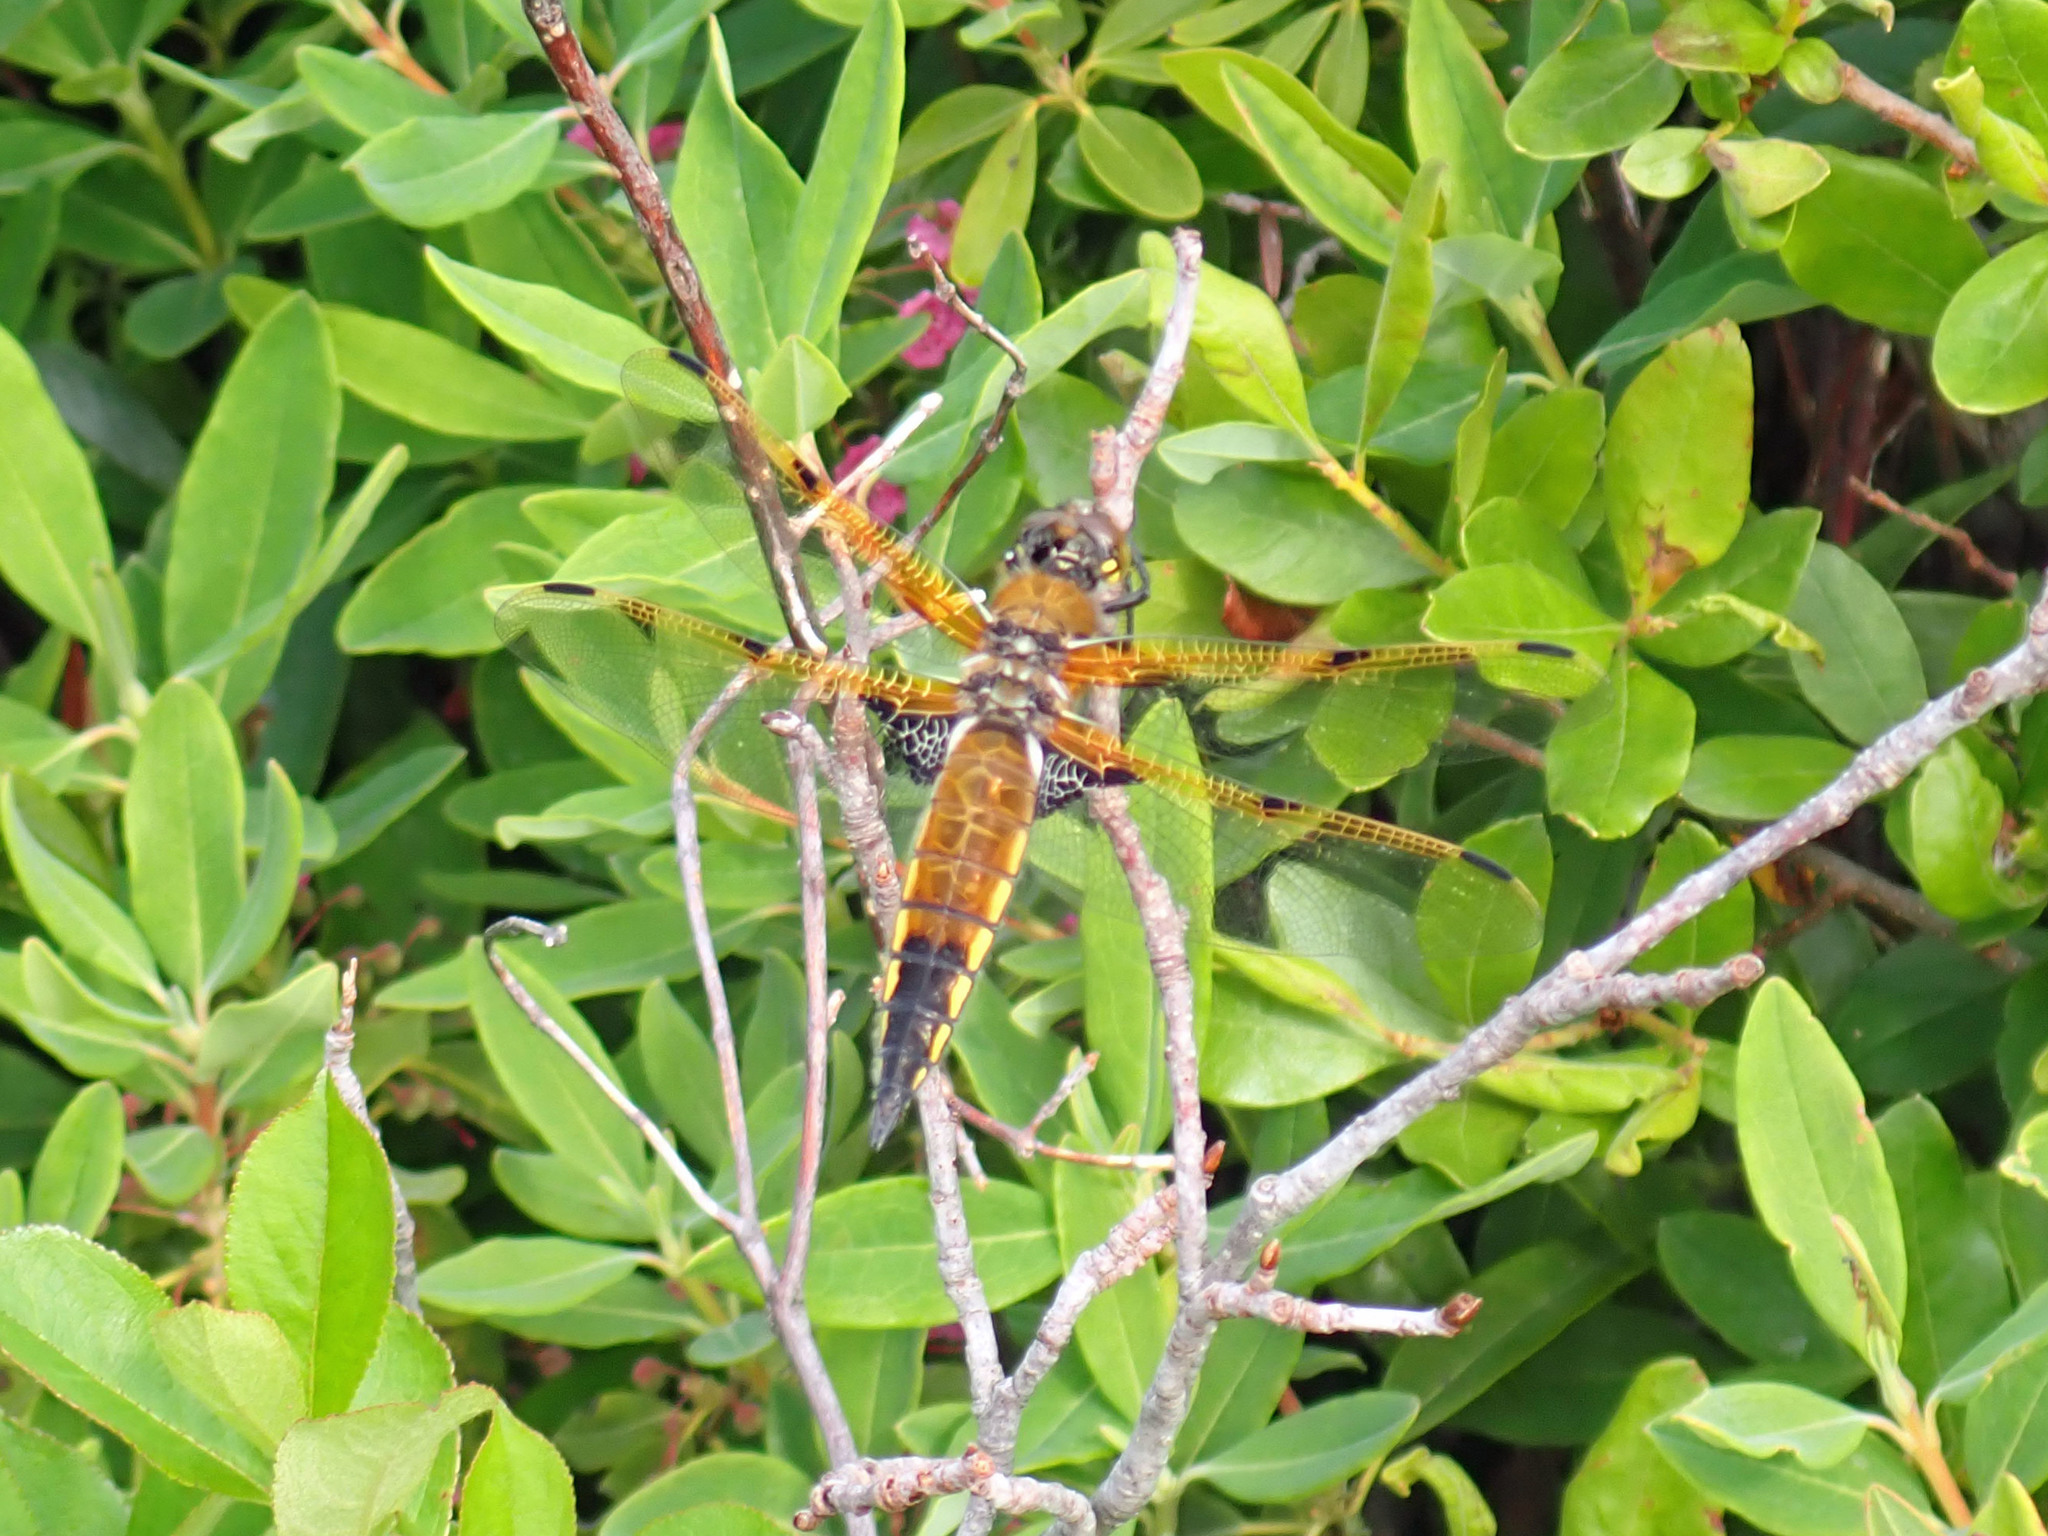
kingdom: Animalia
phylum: Arthropoda
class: Insecta
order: Odonata
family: Libellulidae
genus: Libellula
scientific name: Libellula quadrimaculata
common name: Four-spotted chaser
